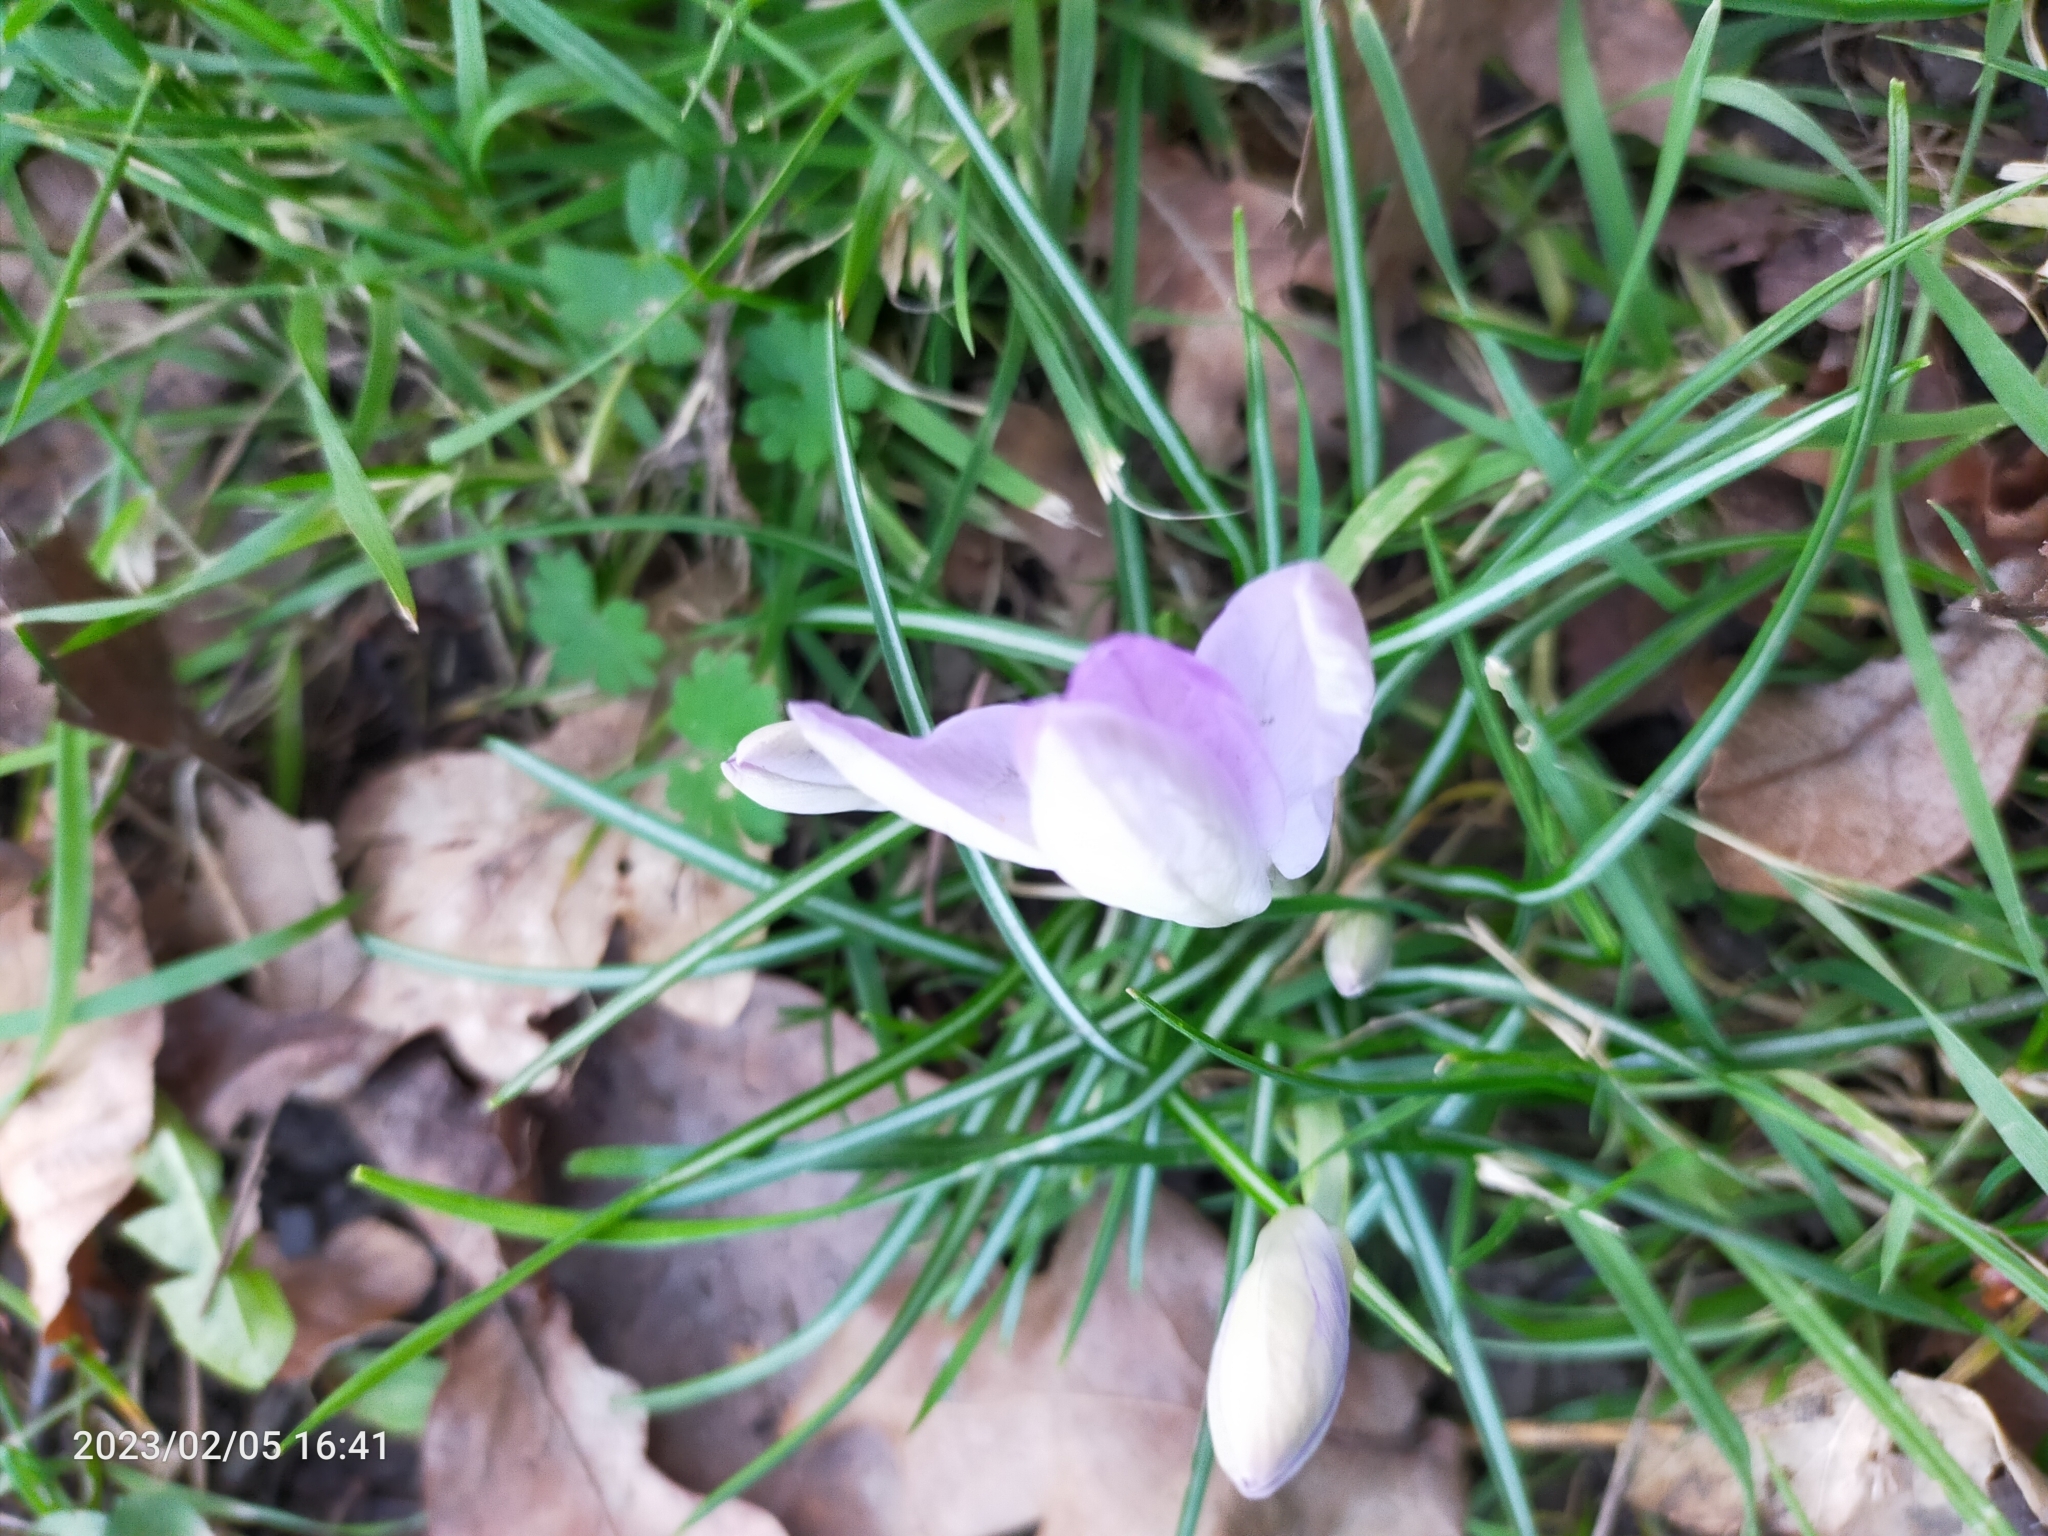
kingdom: Plantae
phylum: Tracheophyta
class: Liliopsida
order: Asparagales
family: Iridaceae
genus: Crocus
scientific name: Crocus tommasinianus
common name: Early crocus
